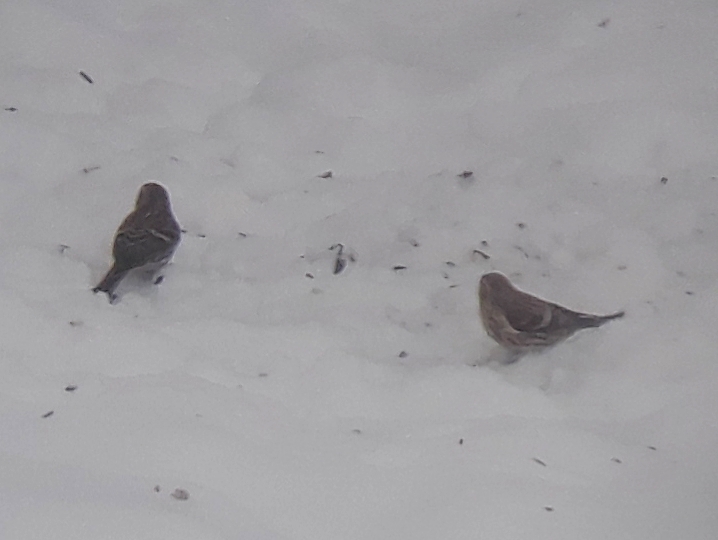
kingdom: Animalia
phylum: Chordata
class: Aves
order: Passeriformes
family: Fringillidae
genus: Acanthis
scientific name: Acanthis flammea
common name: Common redpoll
